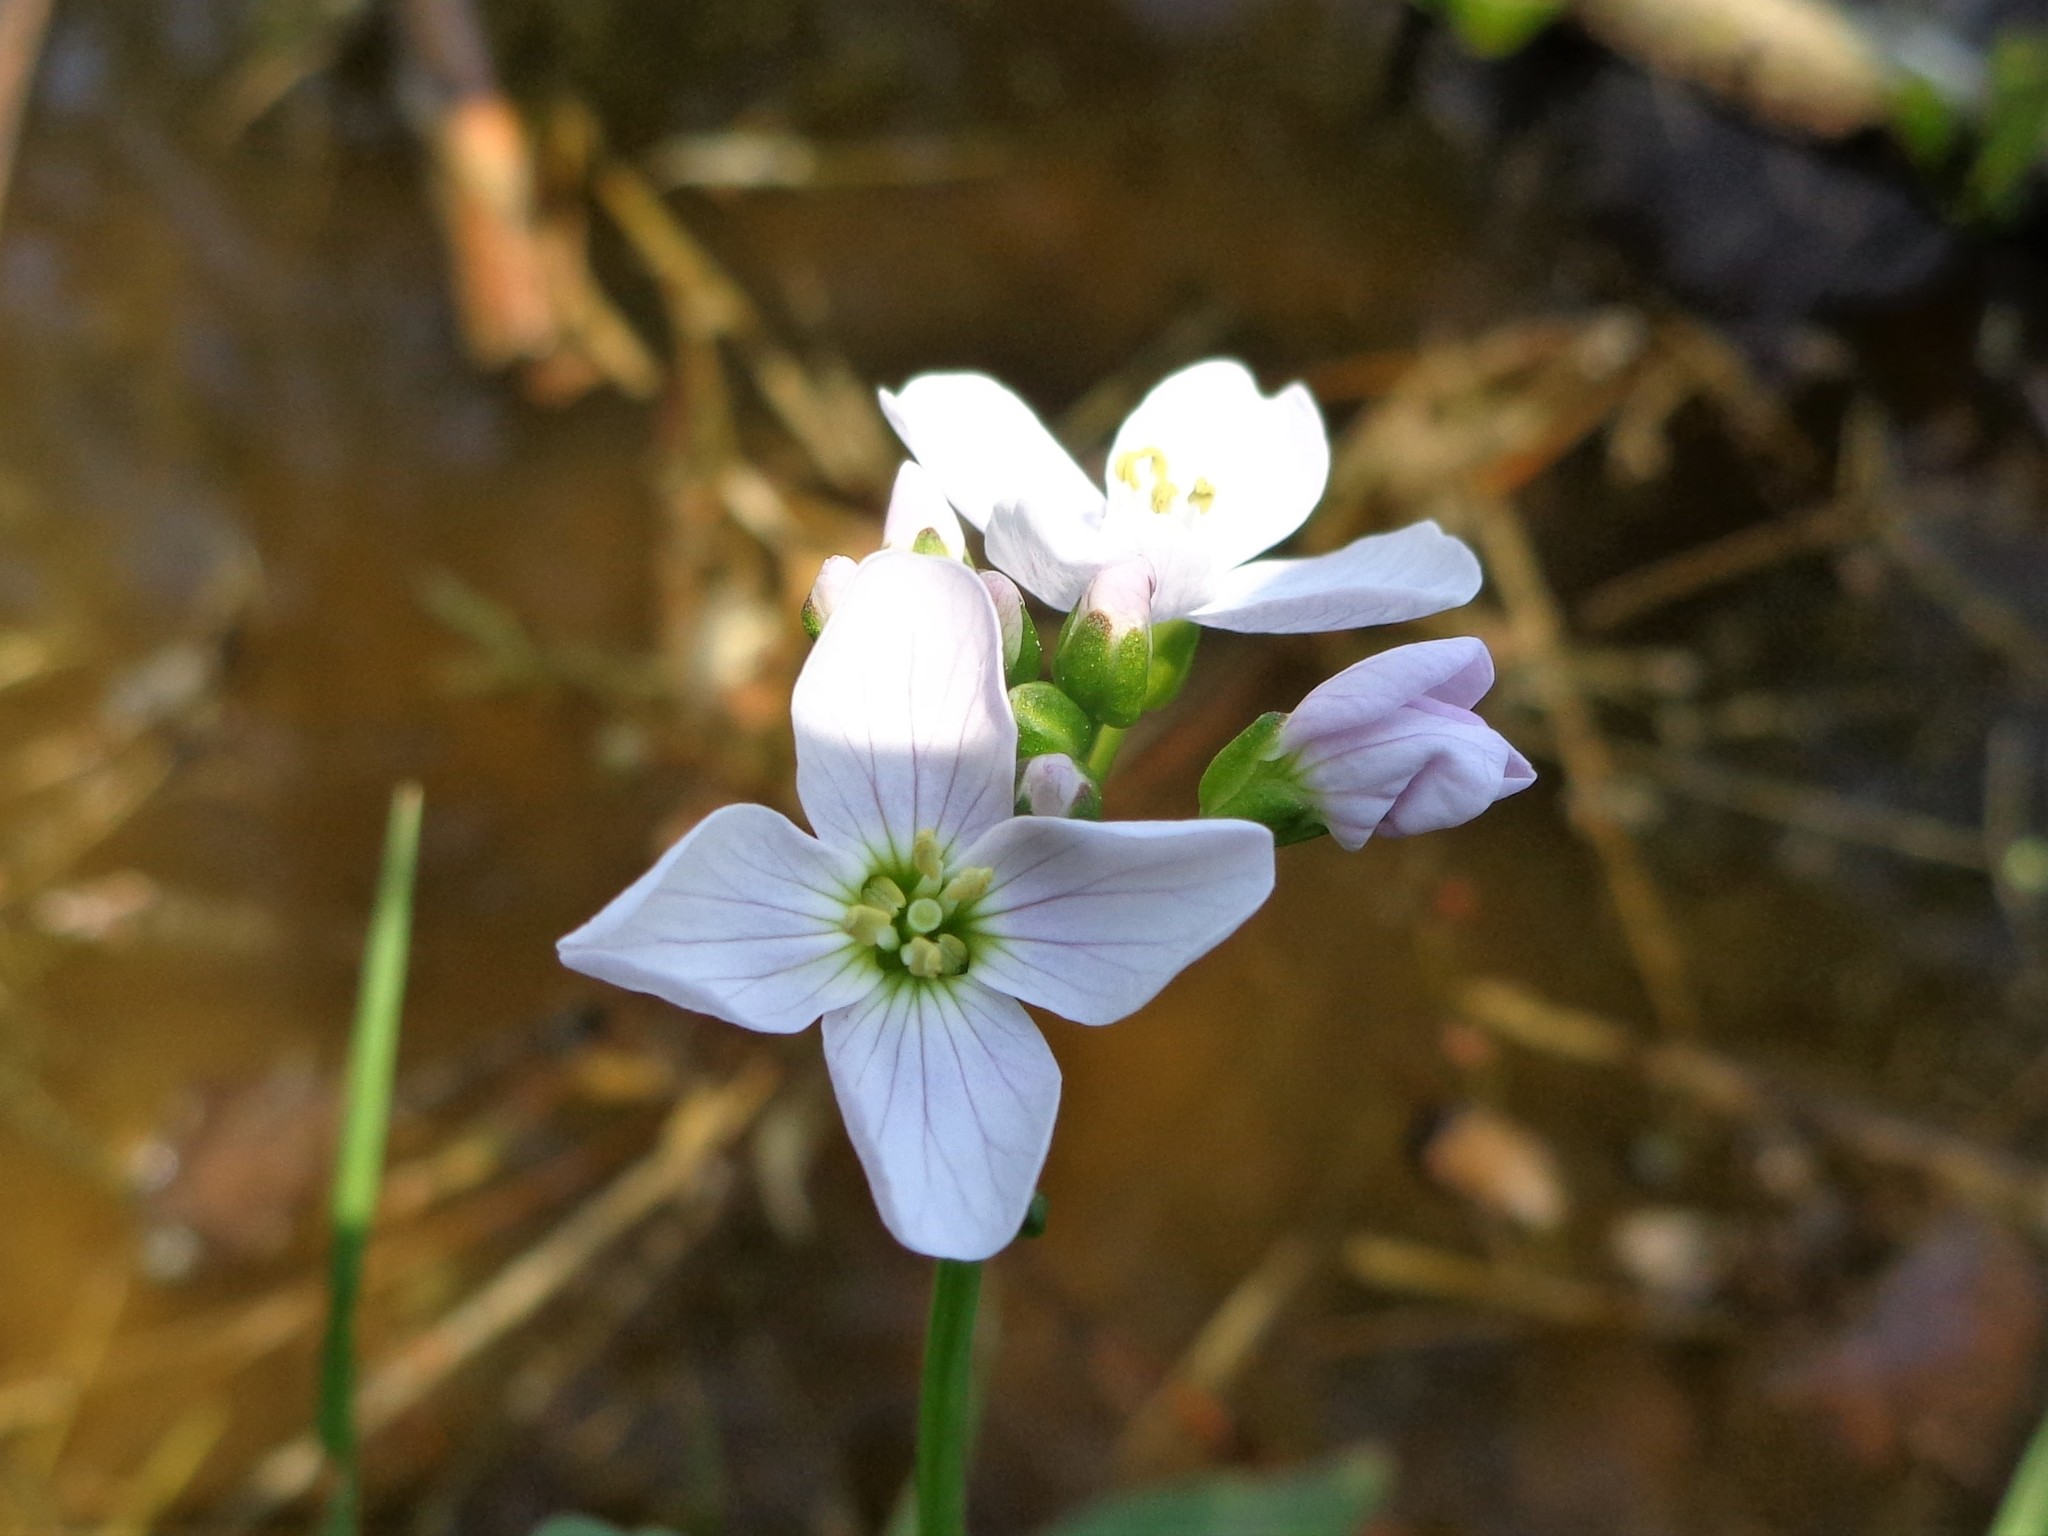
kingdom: Plantae
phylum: Tracheophyta
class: Magnoliopsida
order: Brassicales
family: Brassicaceae
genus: Cardamine
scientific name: Cardamine dentata
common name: Toothed bittercress
